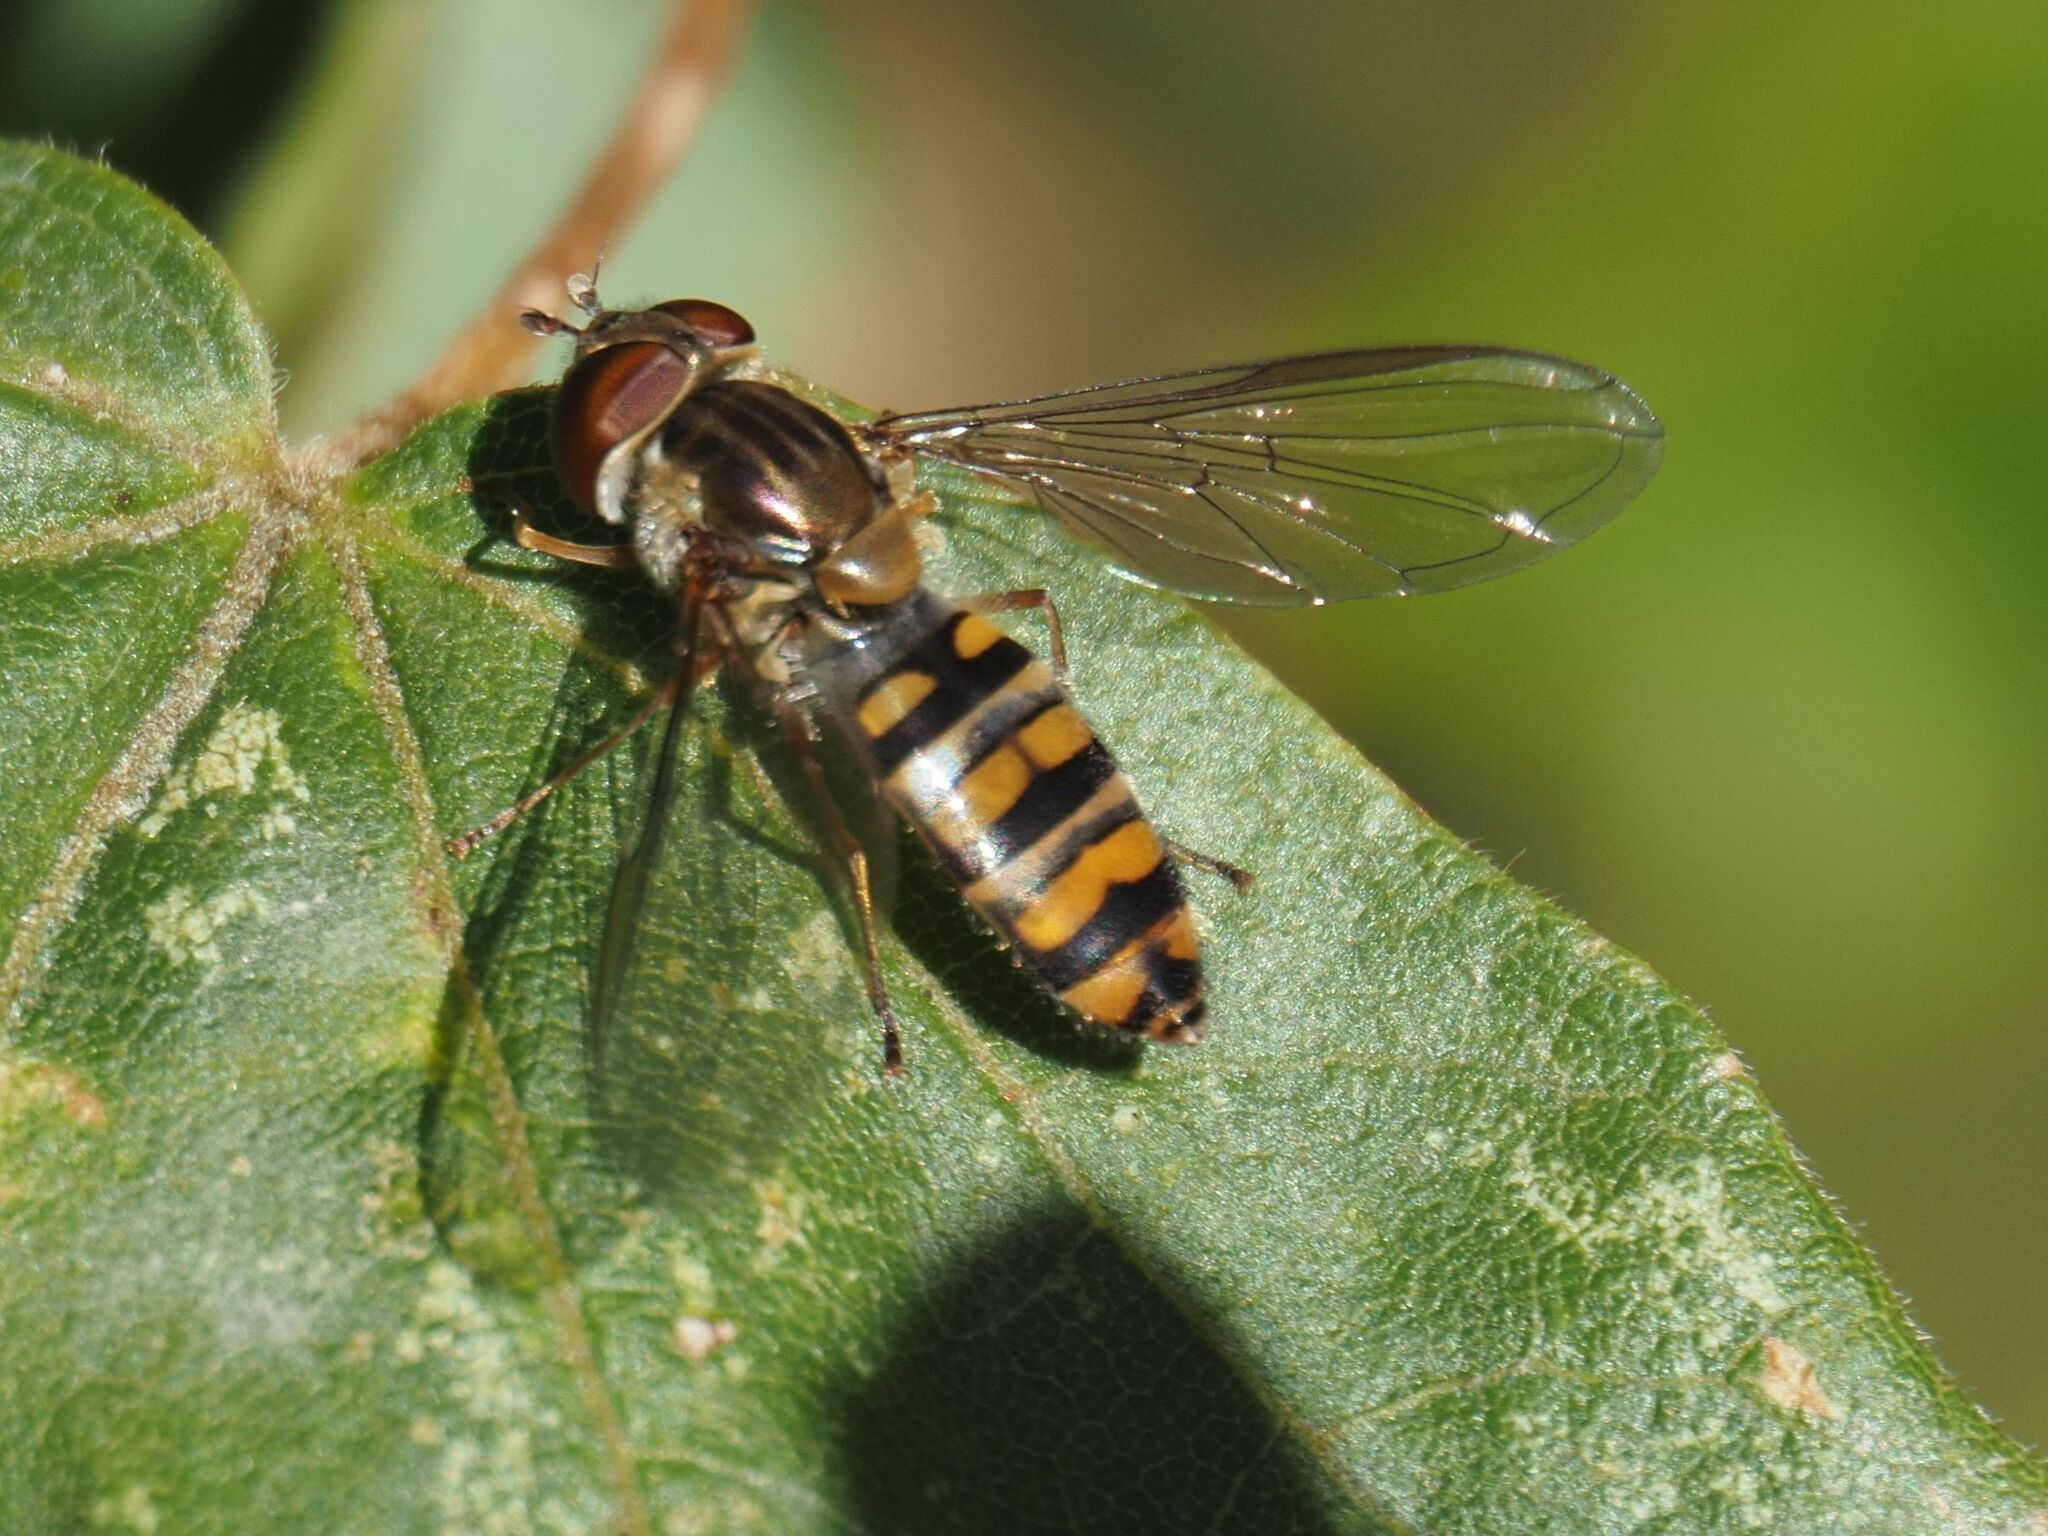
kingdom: Animalia
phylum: Arthropoda
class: Insecta
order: Diptera
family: Syrphidae
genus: Episyrphus
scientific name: Episyrphus balteatus
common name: Marmalade hoverfly
